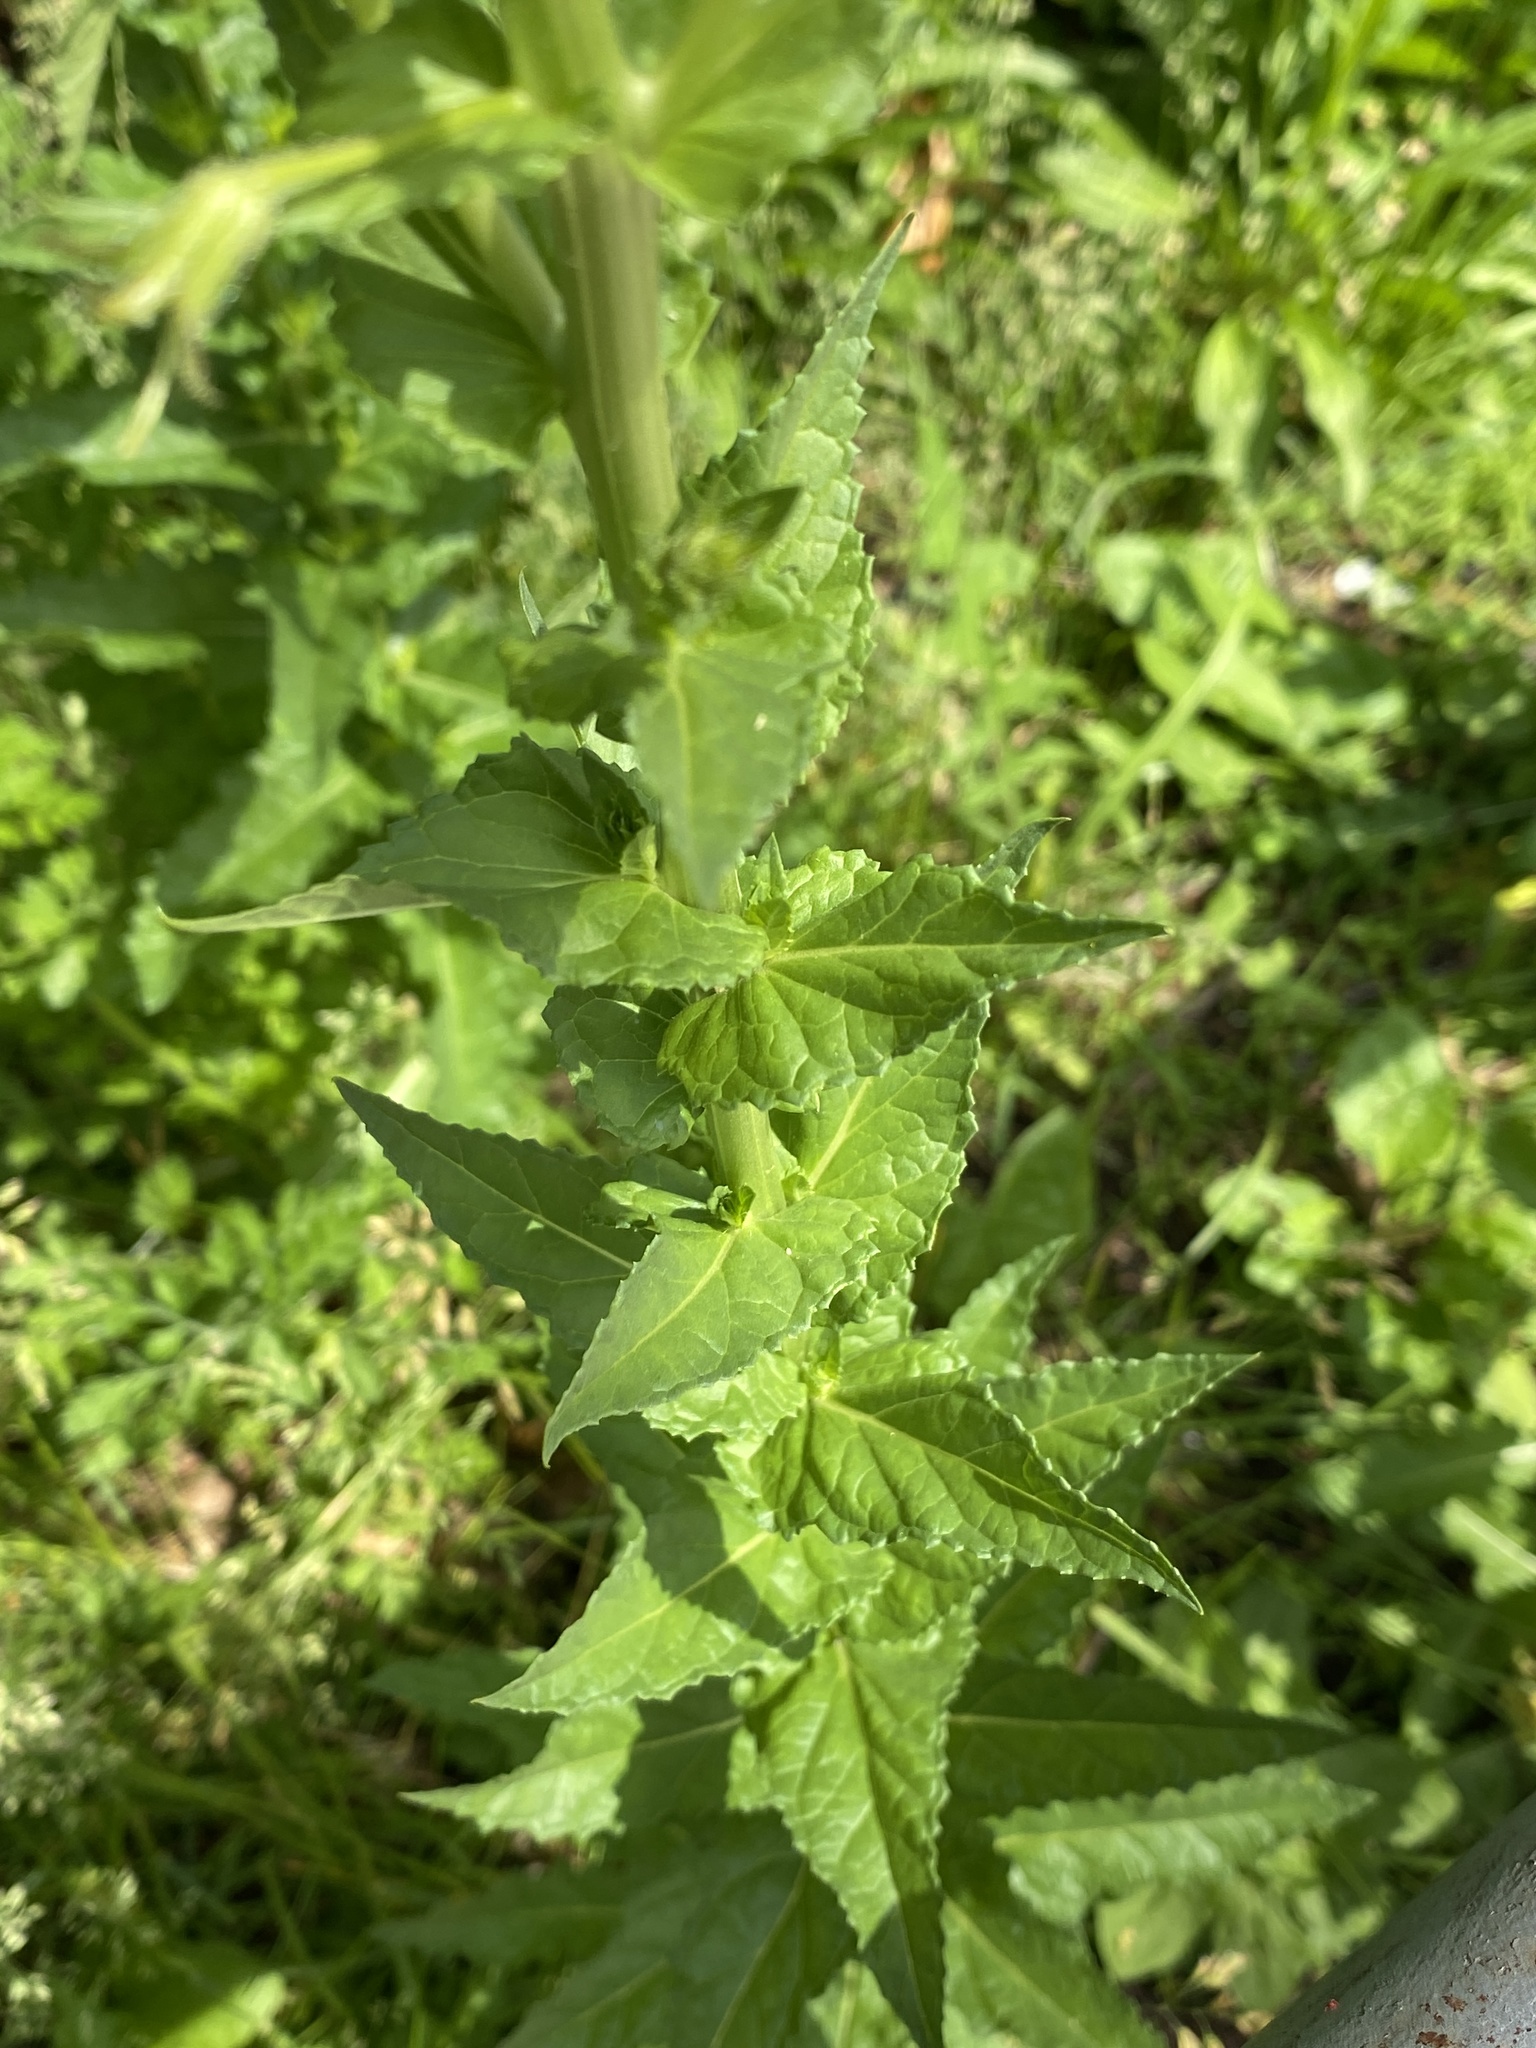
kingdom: Plantae
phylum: Tracheophyta
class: Magnoliopsida
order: Lamiales
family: Scrophulariaceae
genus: Verbascum
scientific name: Verbascum blattaria
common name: Moth mullein
